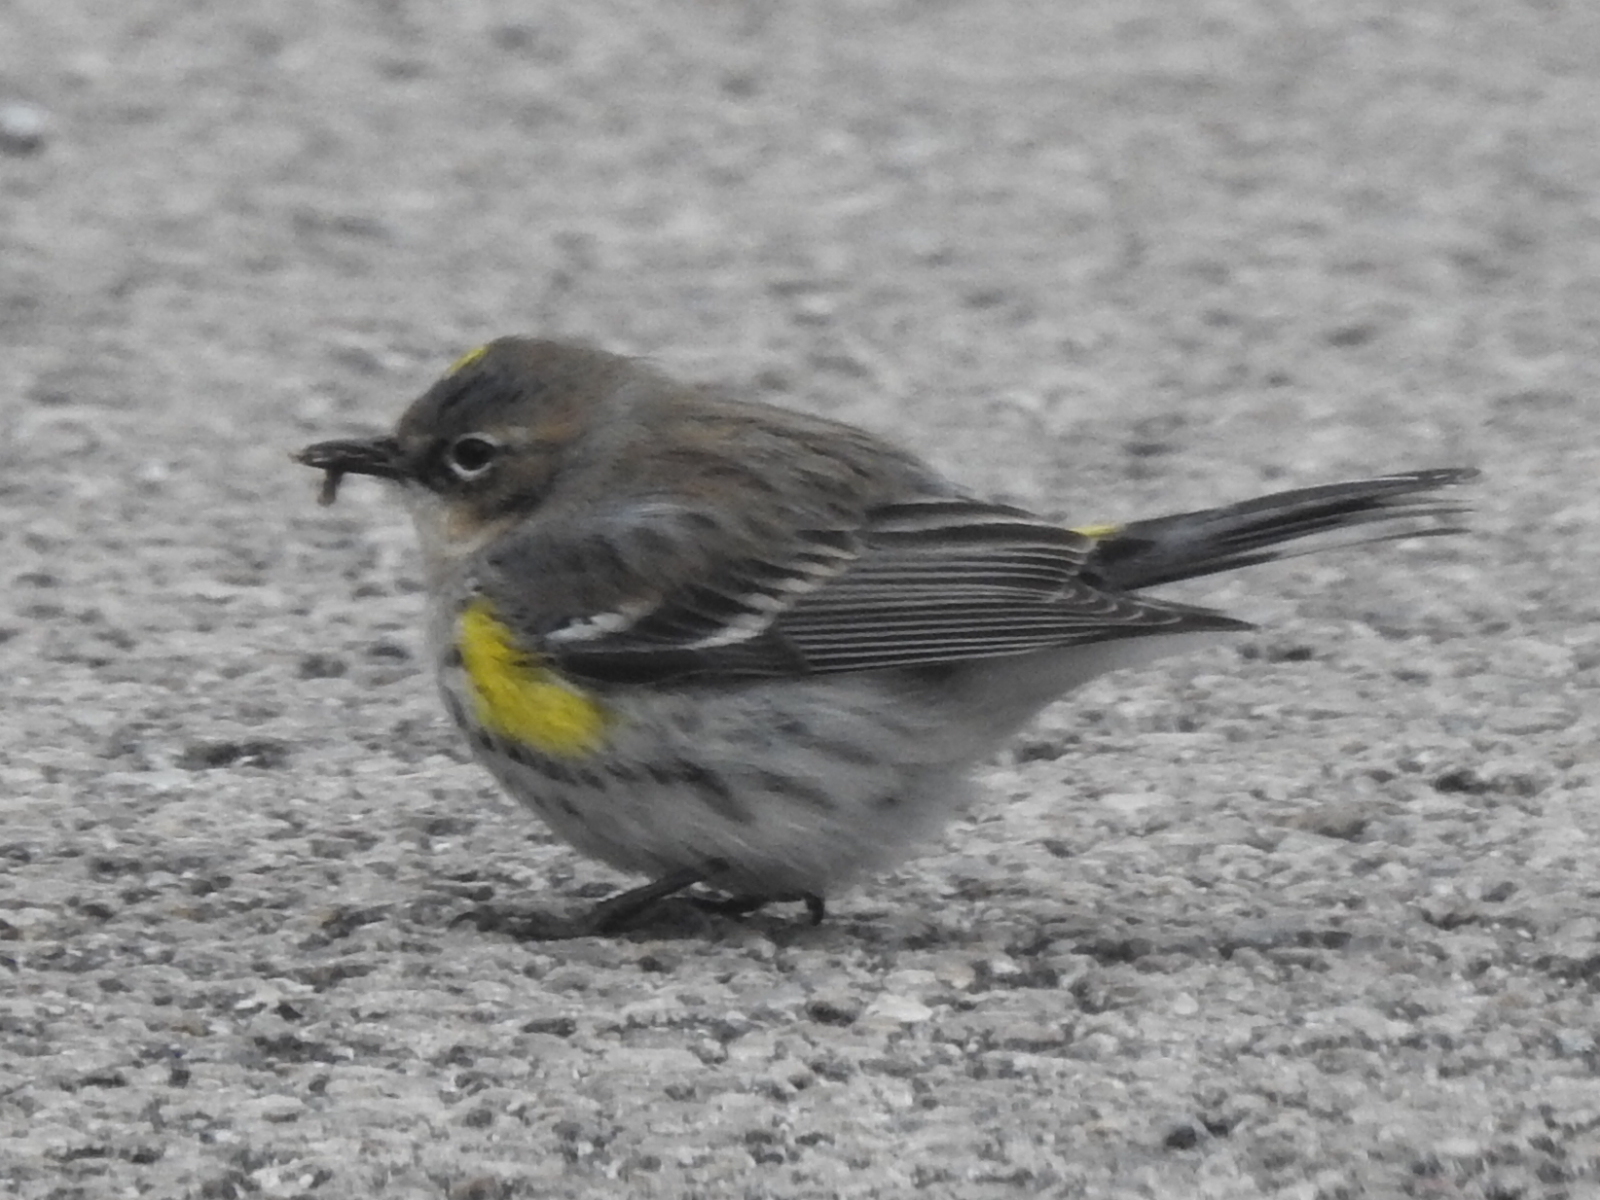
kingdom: Animalia
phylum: Chordata
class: Aves
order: Passeriformes
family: Parulidae
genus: Setophaga
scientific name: Setophaga coronata
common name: Myrtle warbler
